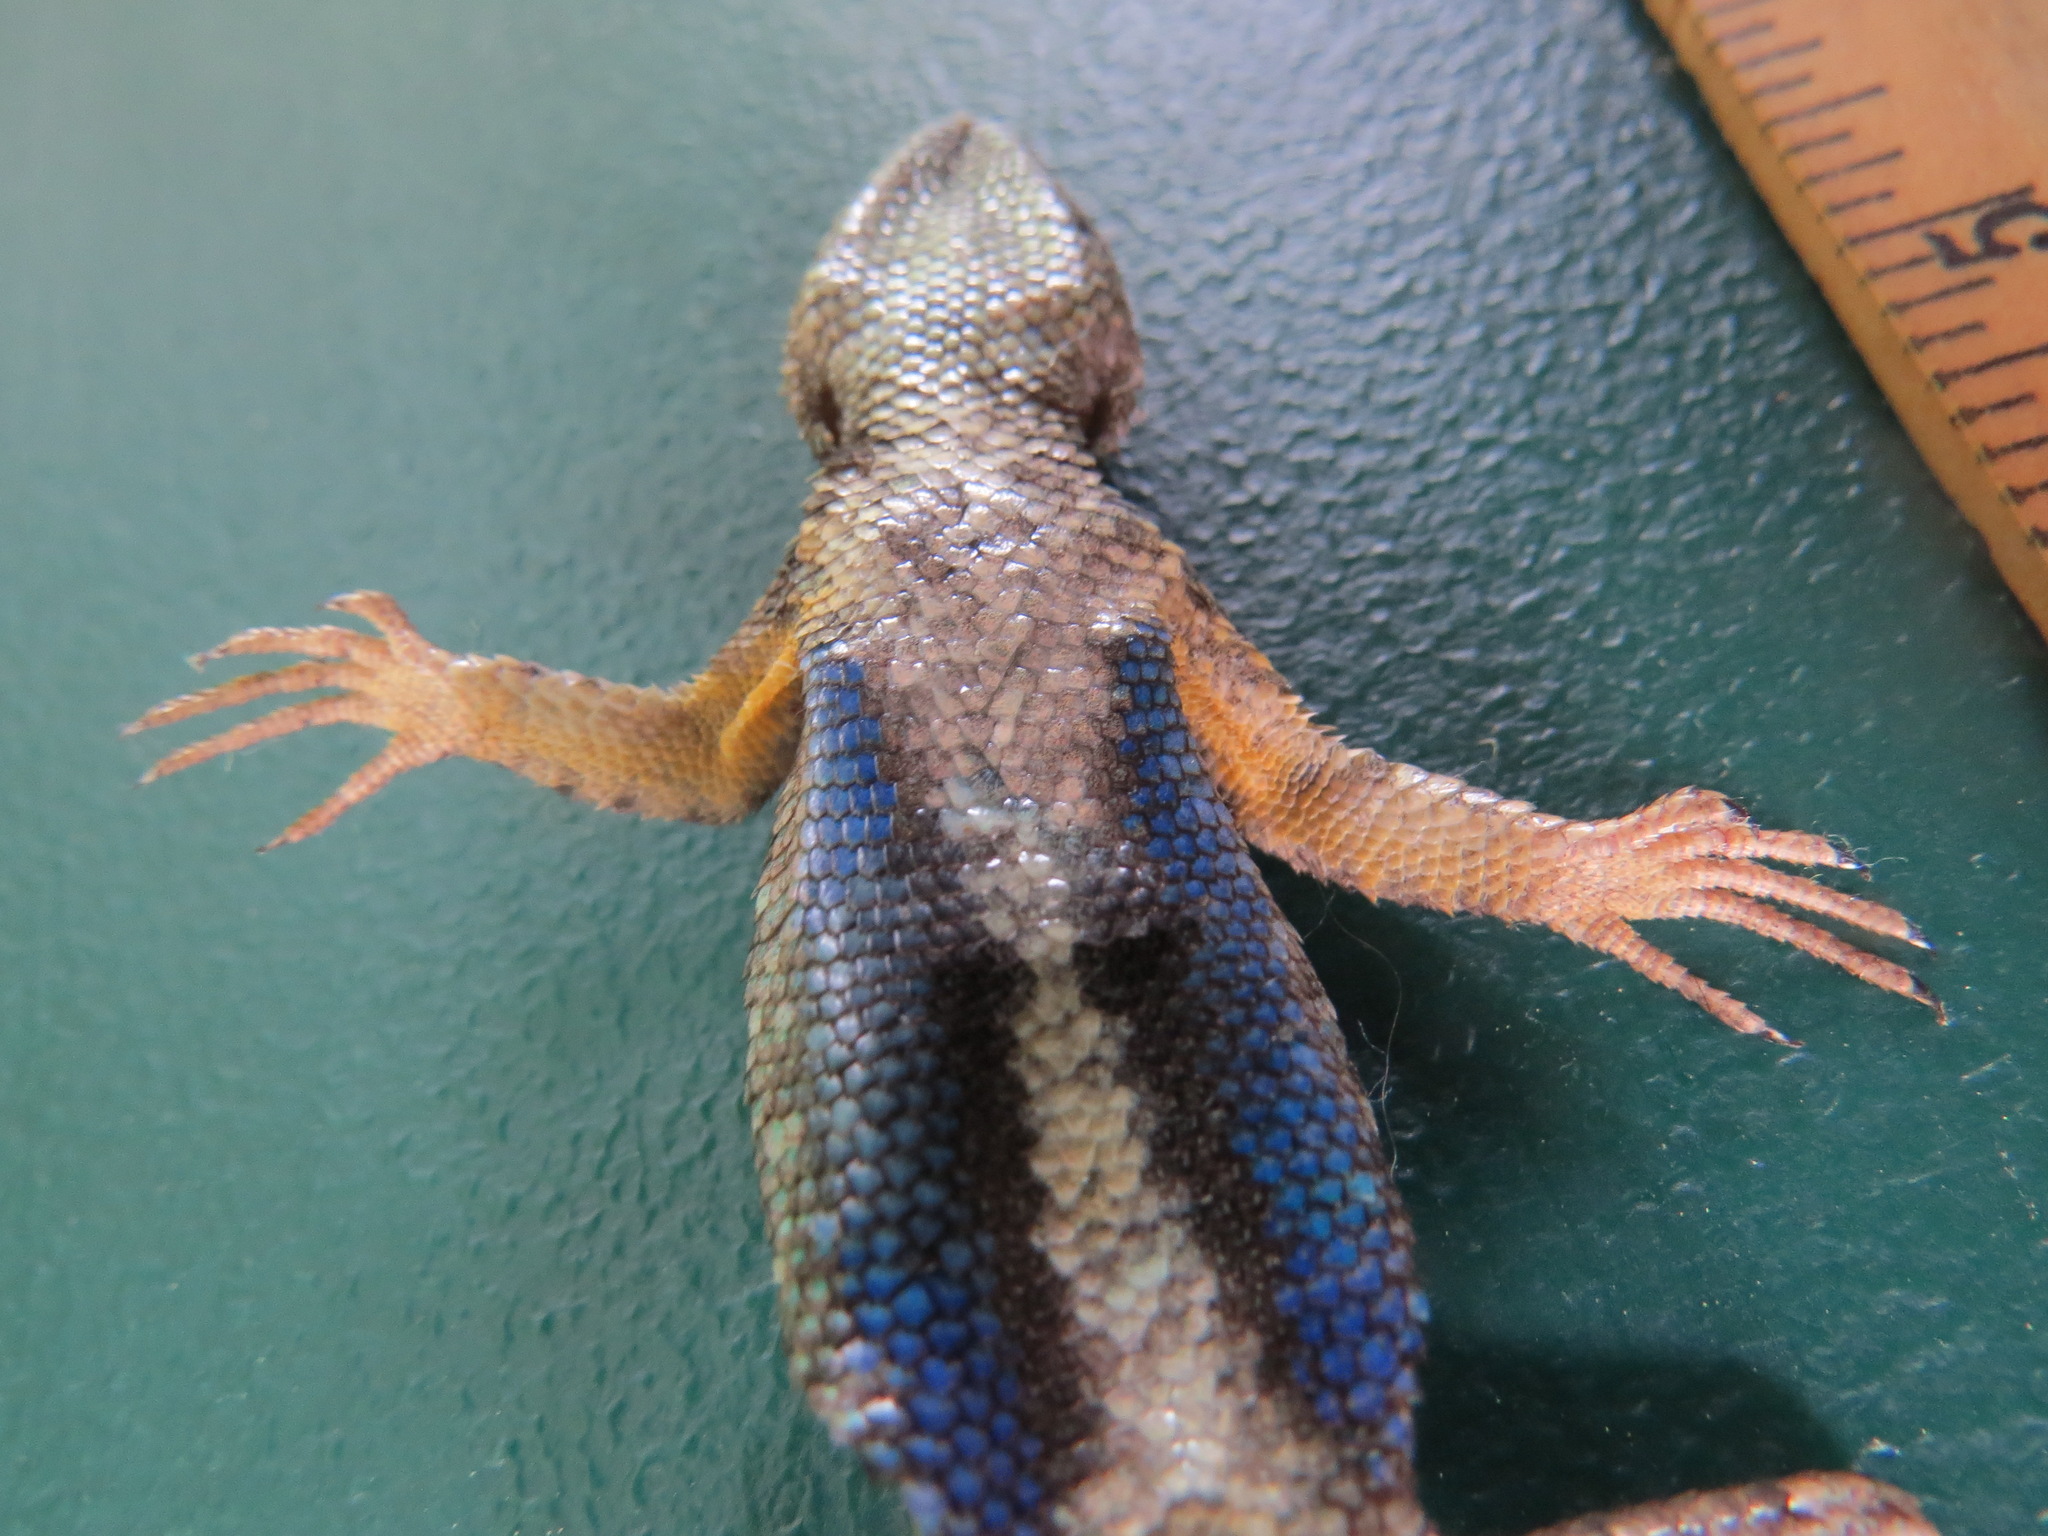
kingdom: Animalia
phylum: Chordata
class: Squamata
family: Phrynosomatidae
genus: Sceloporus
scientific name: Sceloporus occidentalis
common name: Western fence lizard
